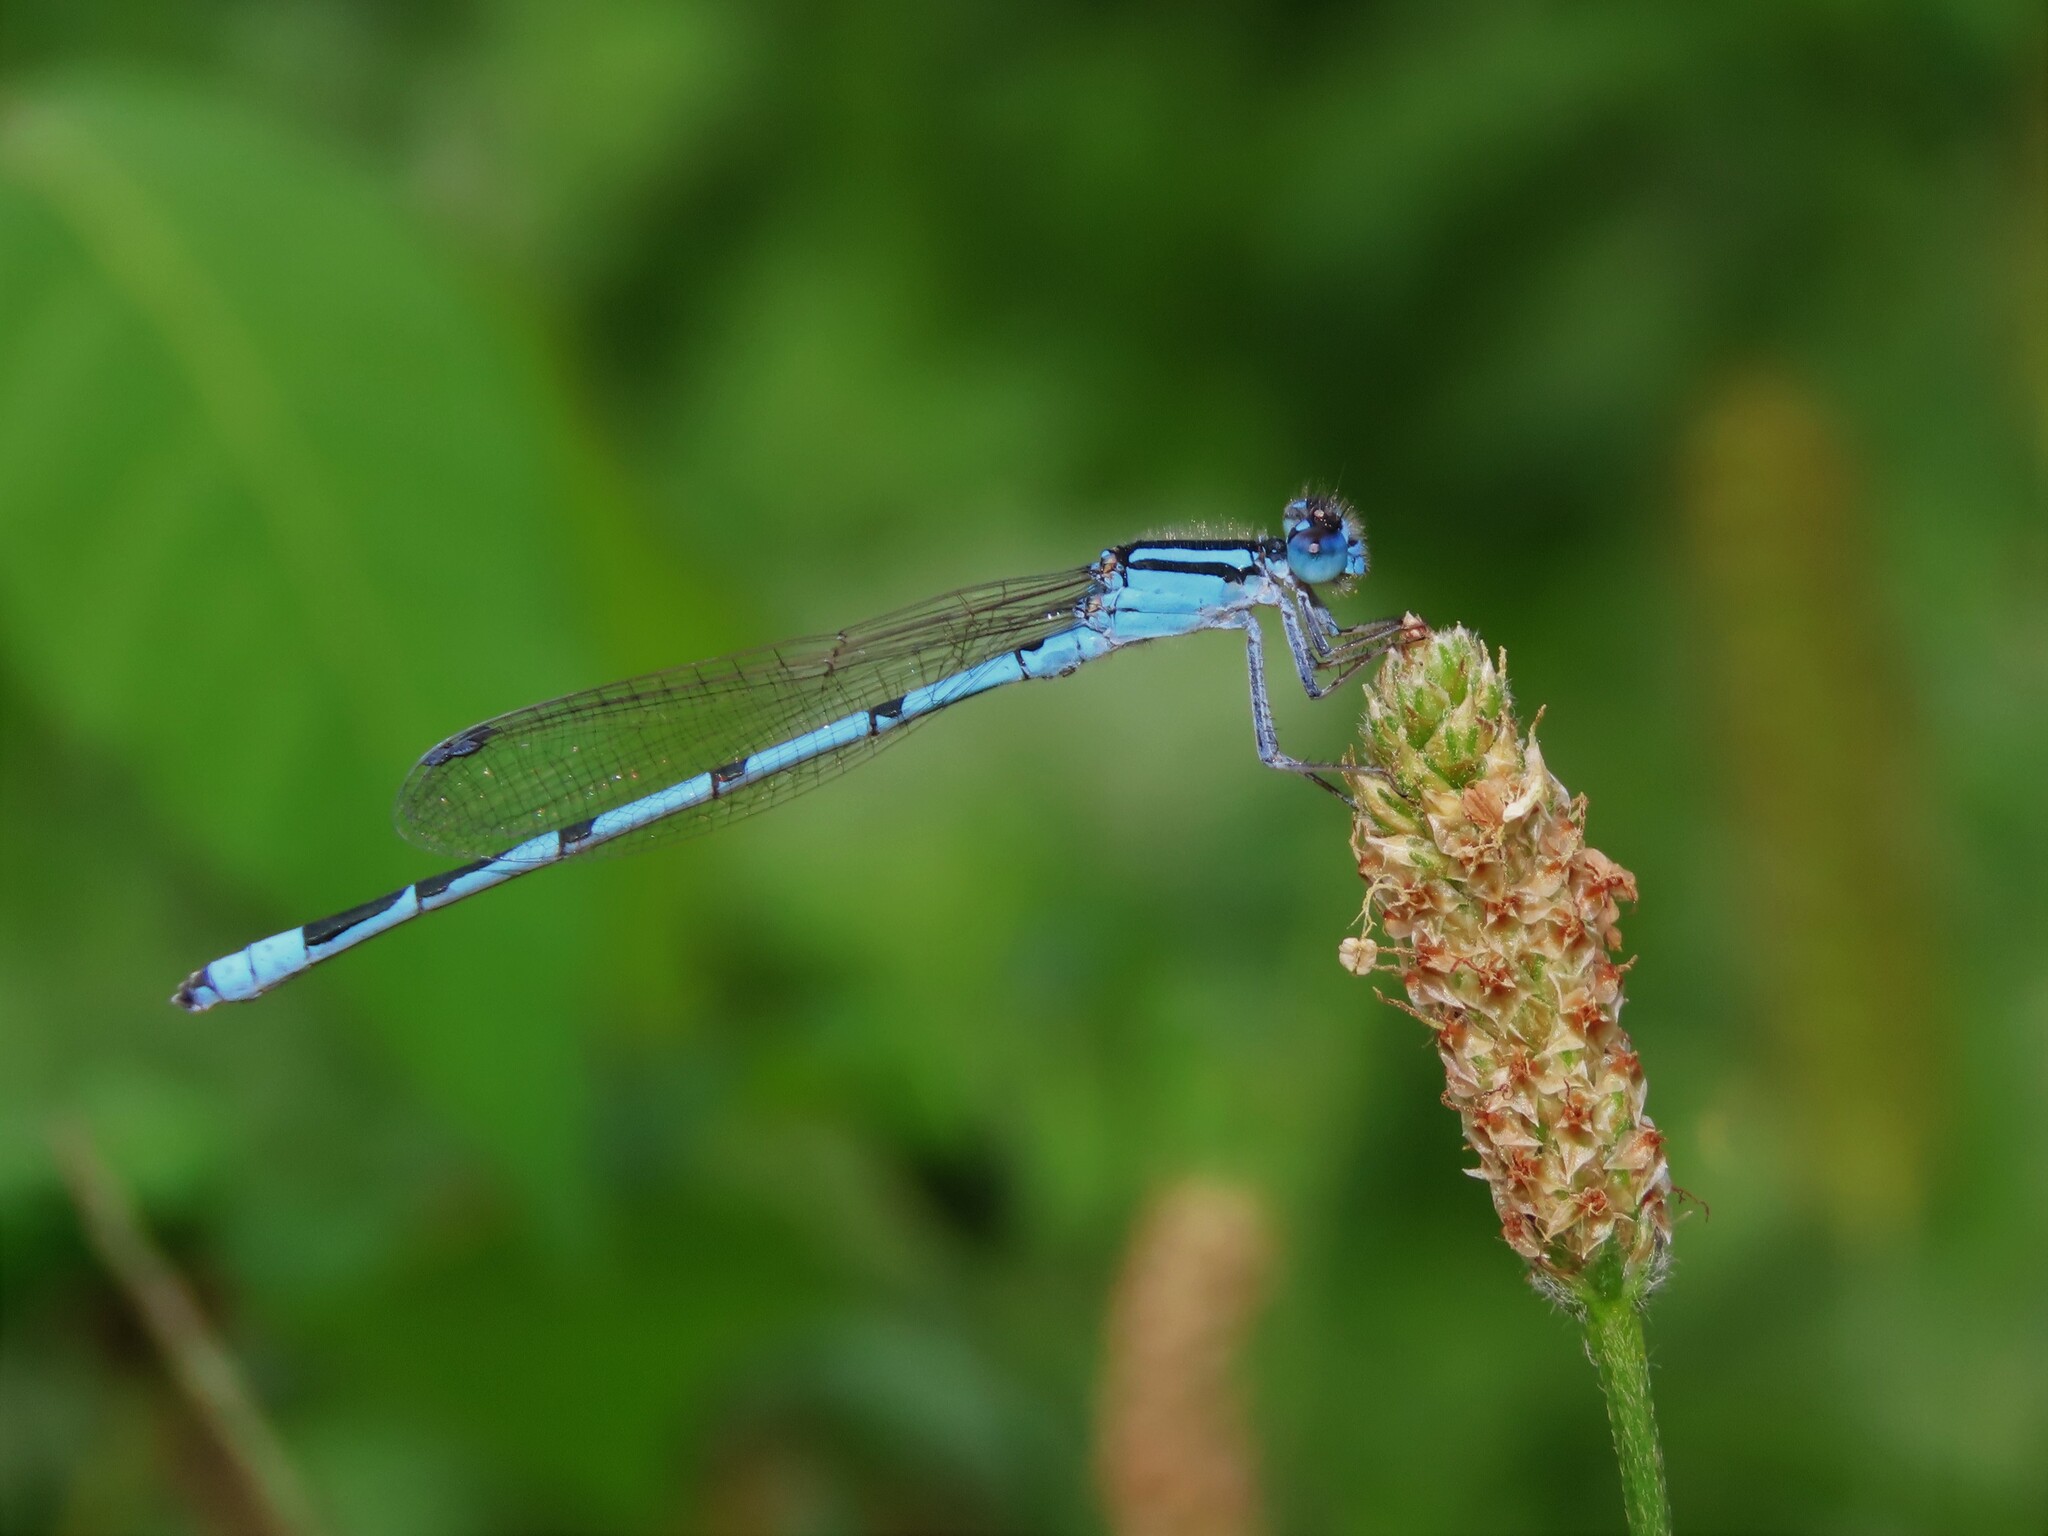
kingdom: Animalia
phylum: Arthropoda
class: Insecta
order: Odonata
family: Coenagrionidae
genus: Enallagma
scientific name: Enallagma civile
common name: Damselfly
